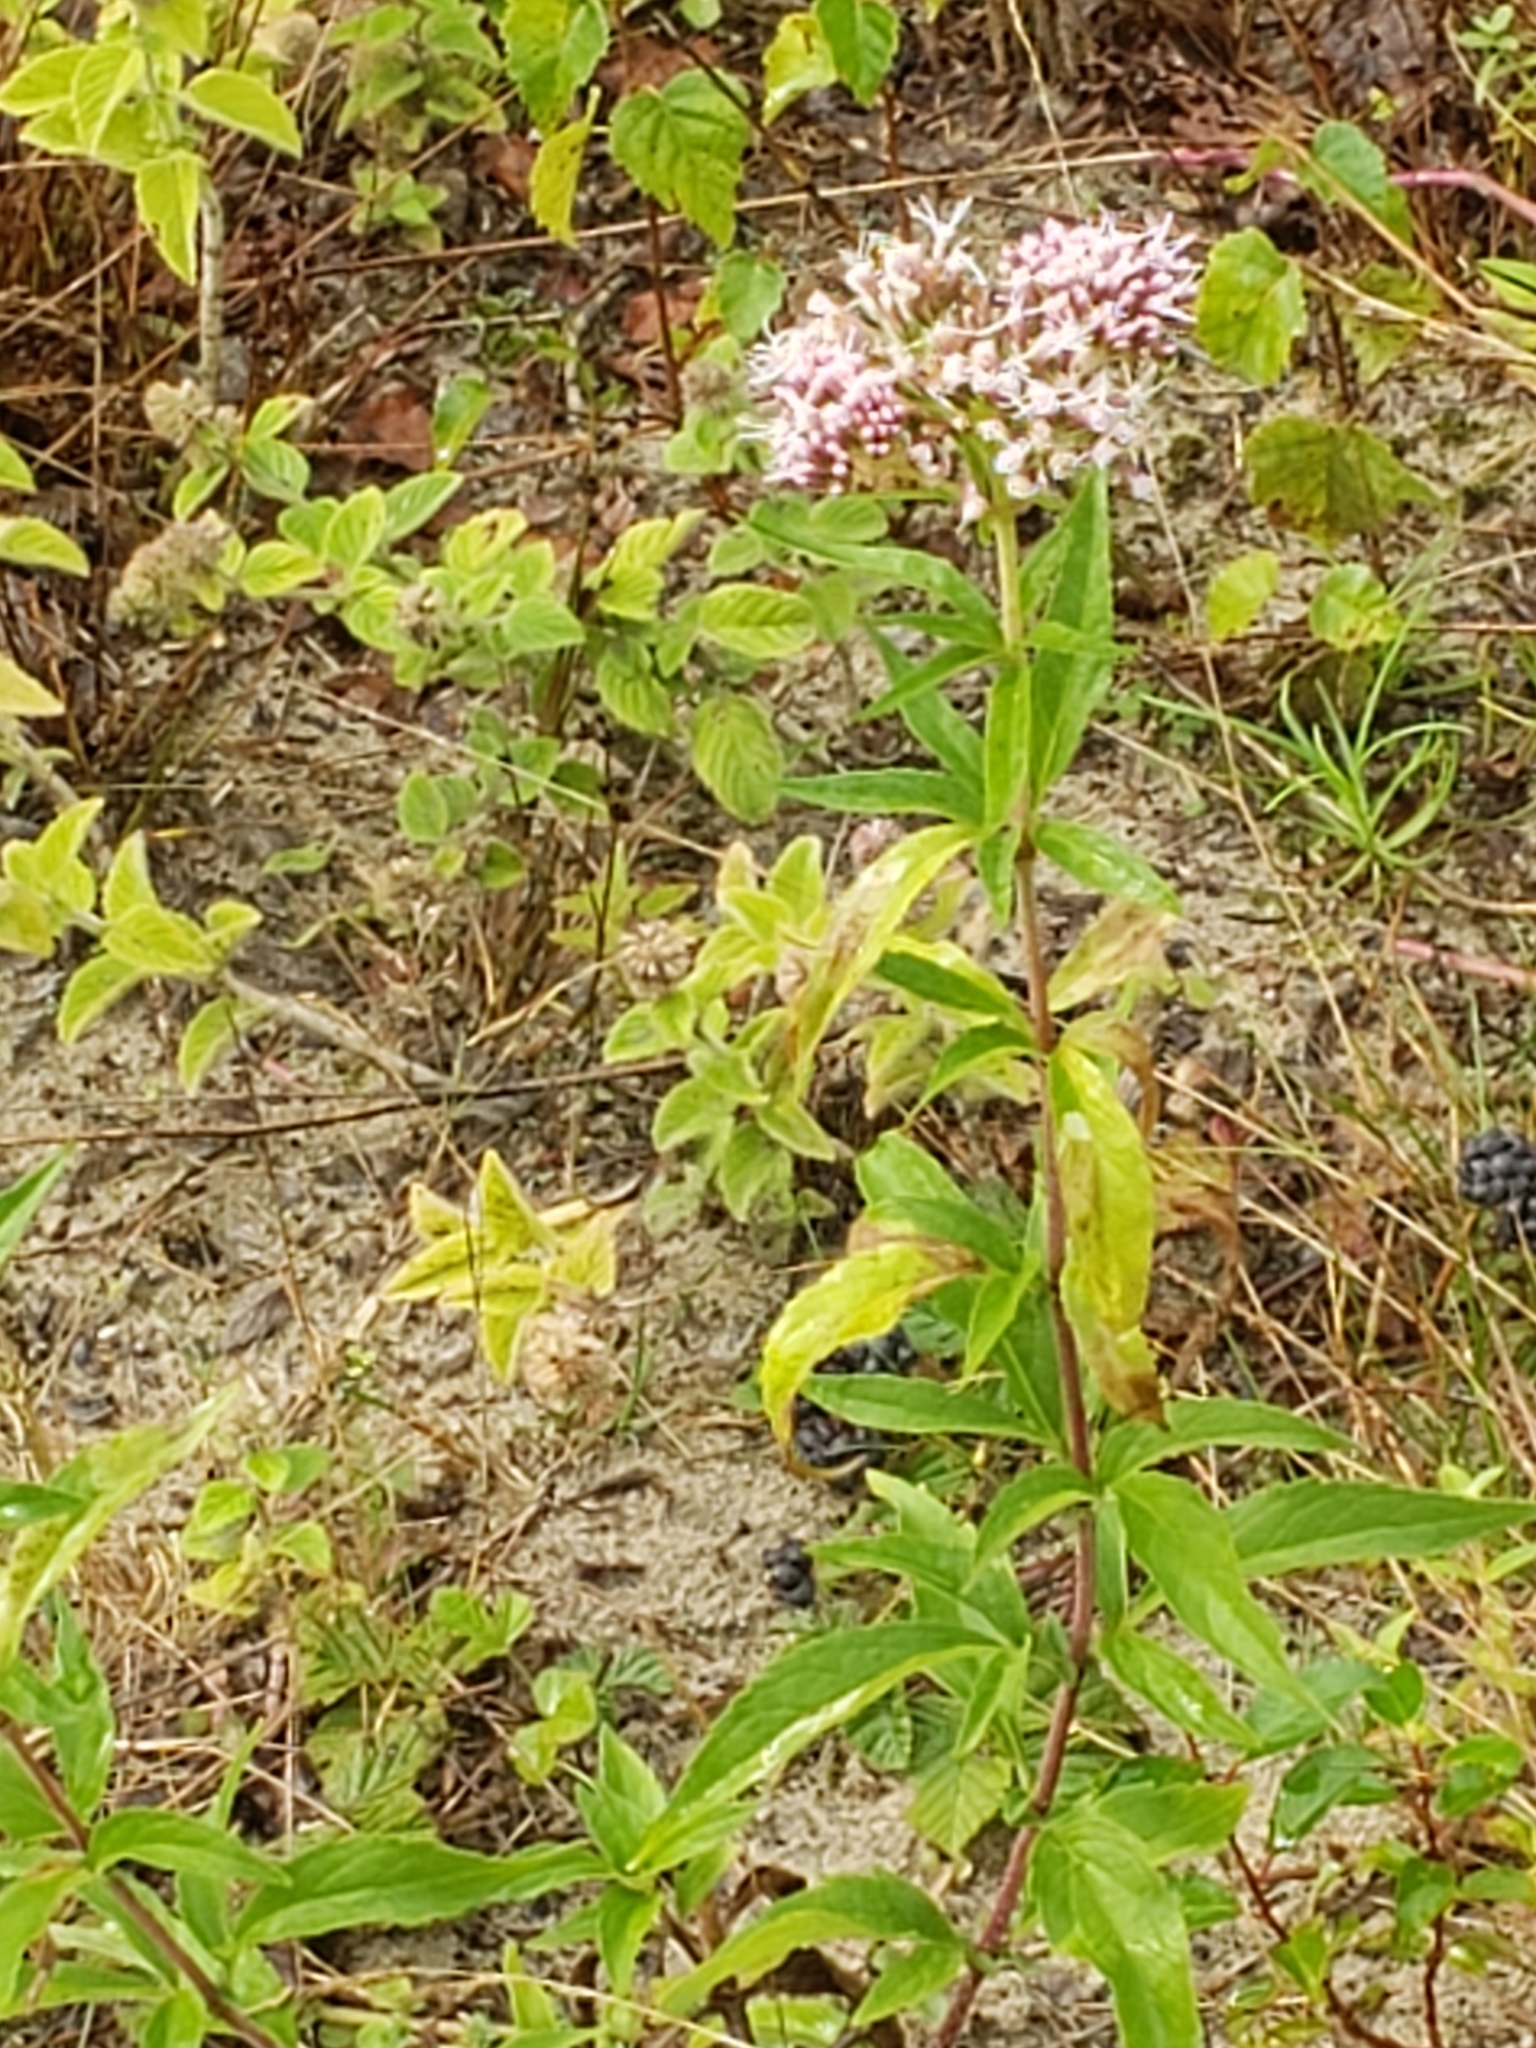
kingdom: Plantae
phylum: Tracheophyta
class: Magnoliopsida
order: Asterales
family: Asteraceae
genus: Eupatorium
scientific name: Eupatorium cannabinum
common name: Hemp-agrimony
